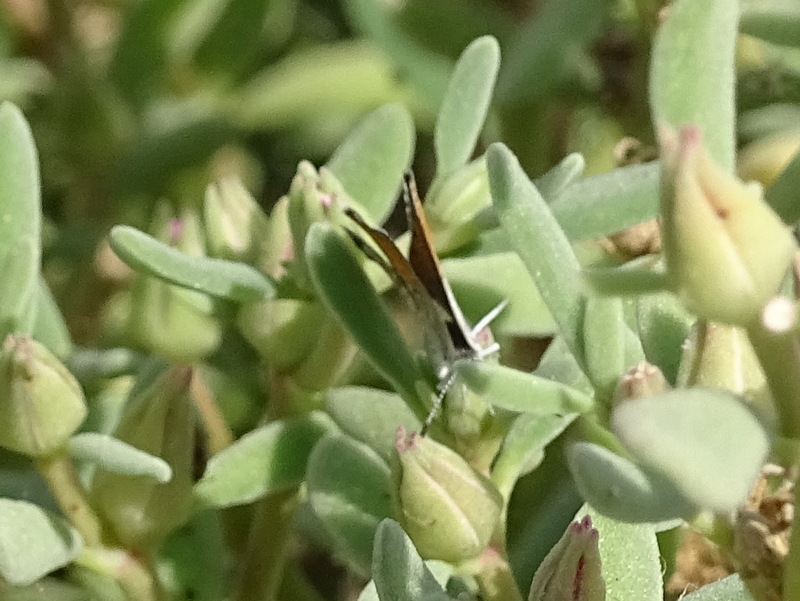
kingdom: Animalia
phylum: Arthropoda
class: Insecta
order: Lepidoptera
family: Lycaenidae
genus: Brephidium
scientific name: Brephidium exilis
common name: Pygmy blue
